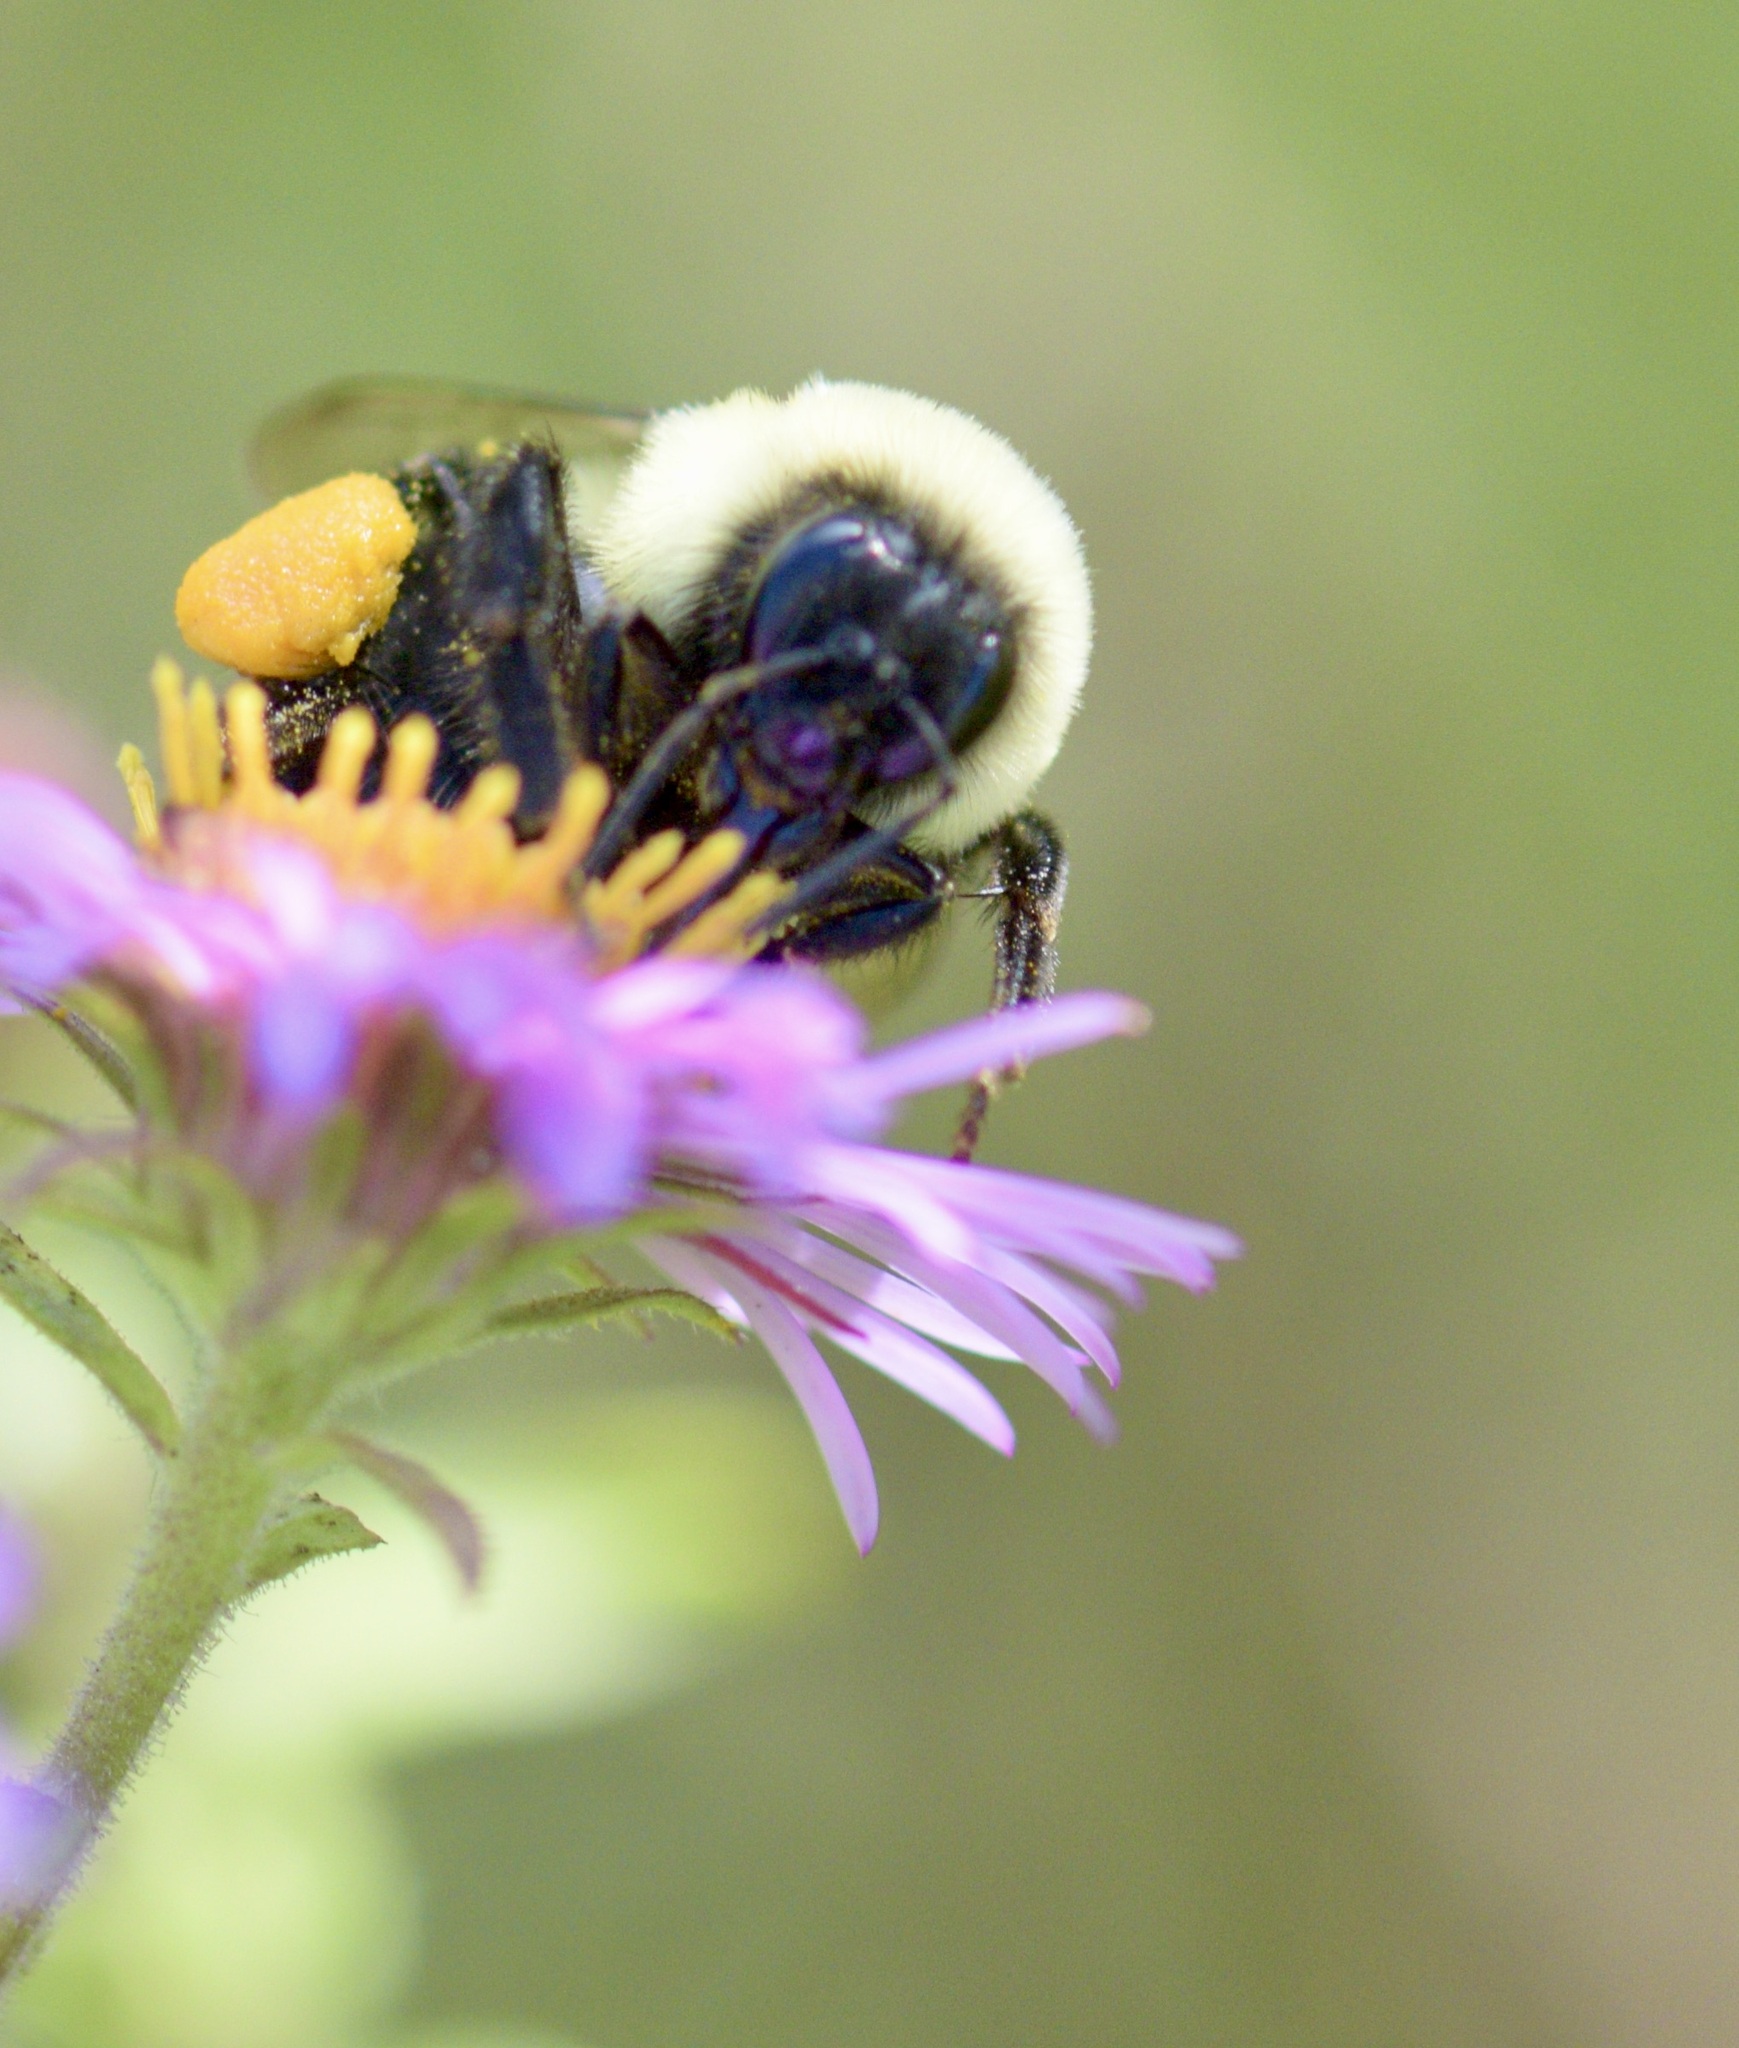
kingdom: Animalia
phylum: Arthropoda
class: Insecta
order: Hymenoptera
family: Apidae
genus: Bombus
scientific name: Bombus impatiens
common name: Common eastern bumble bee
